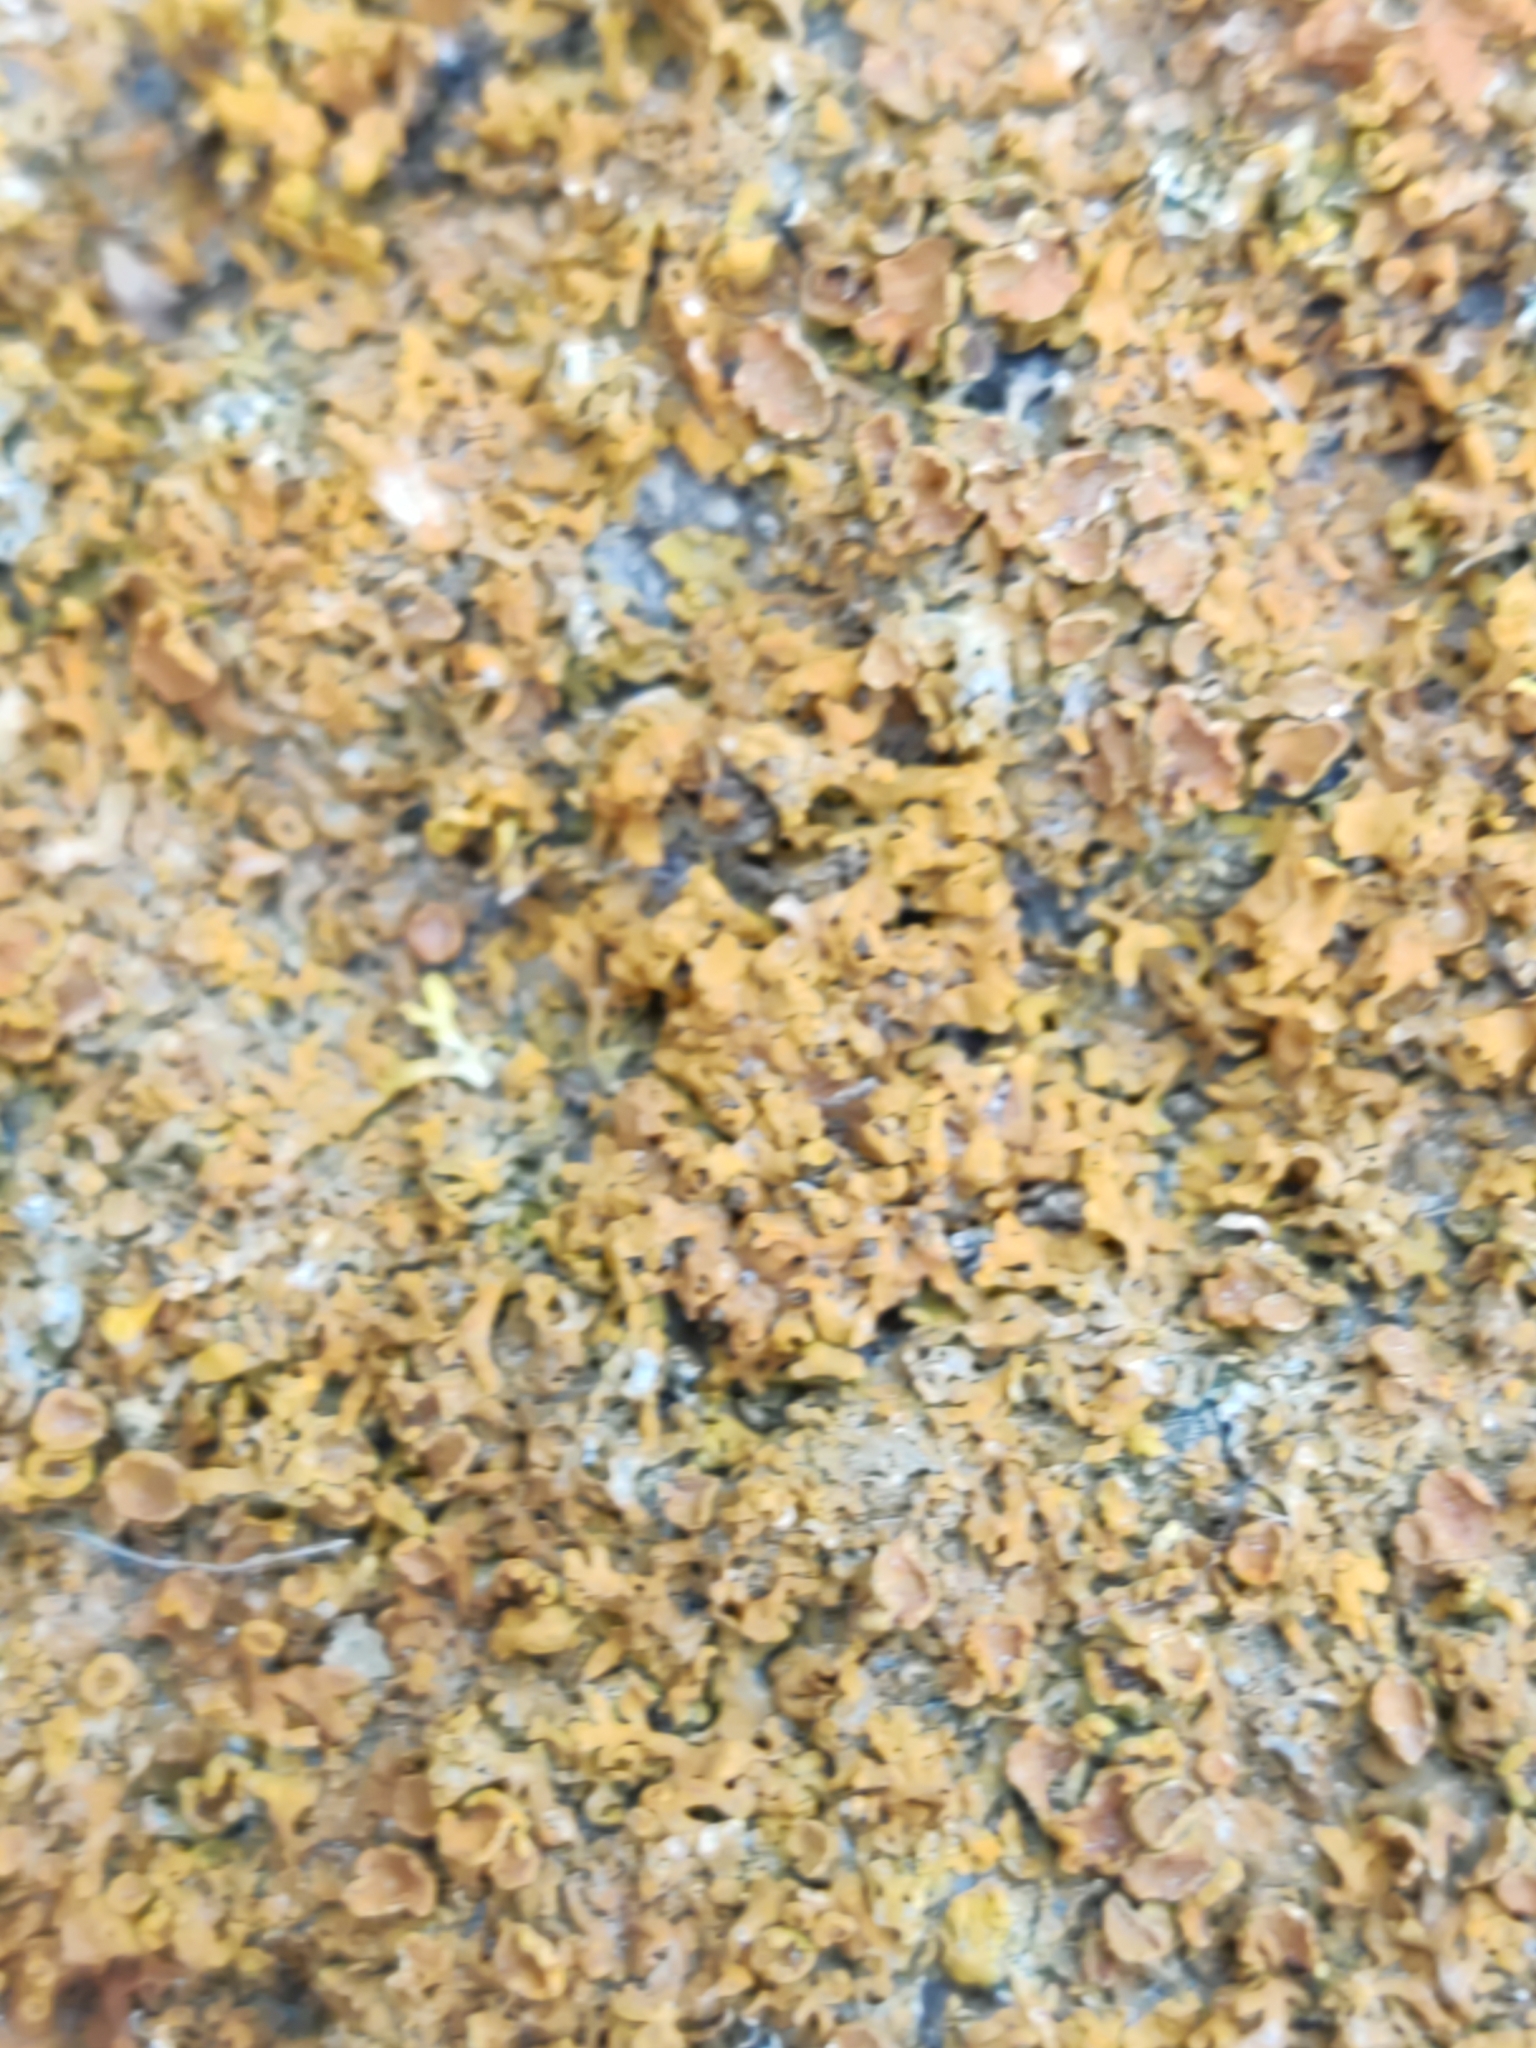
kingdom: Fungi
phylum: Ascomycota
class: Lecanoromycetes
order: Teloschistales
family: Teloschistaceae
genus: Xanthoria
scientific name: Xanthoria parietina
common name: Common orange lichen
